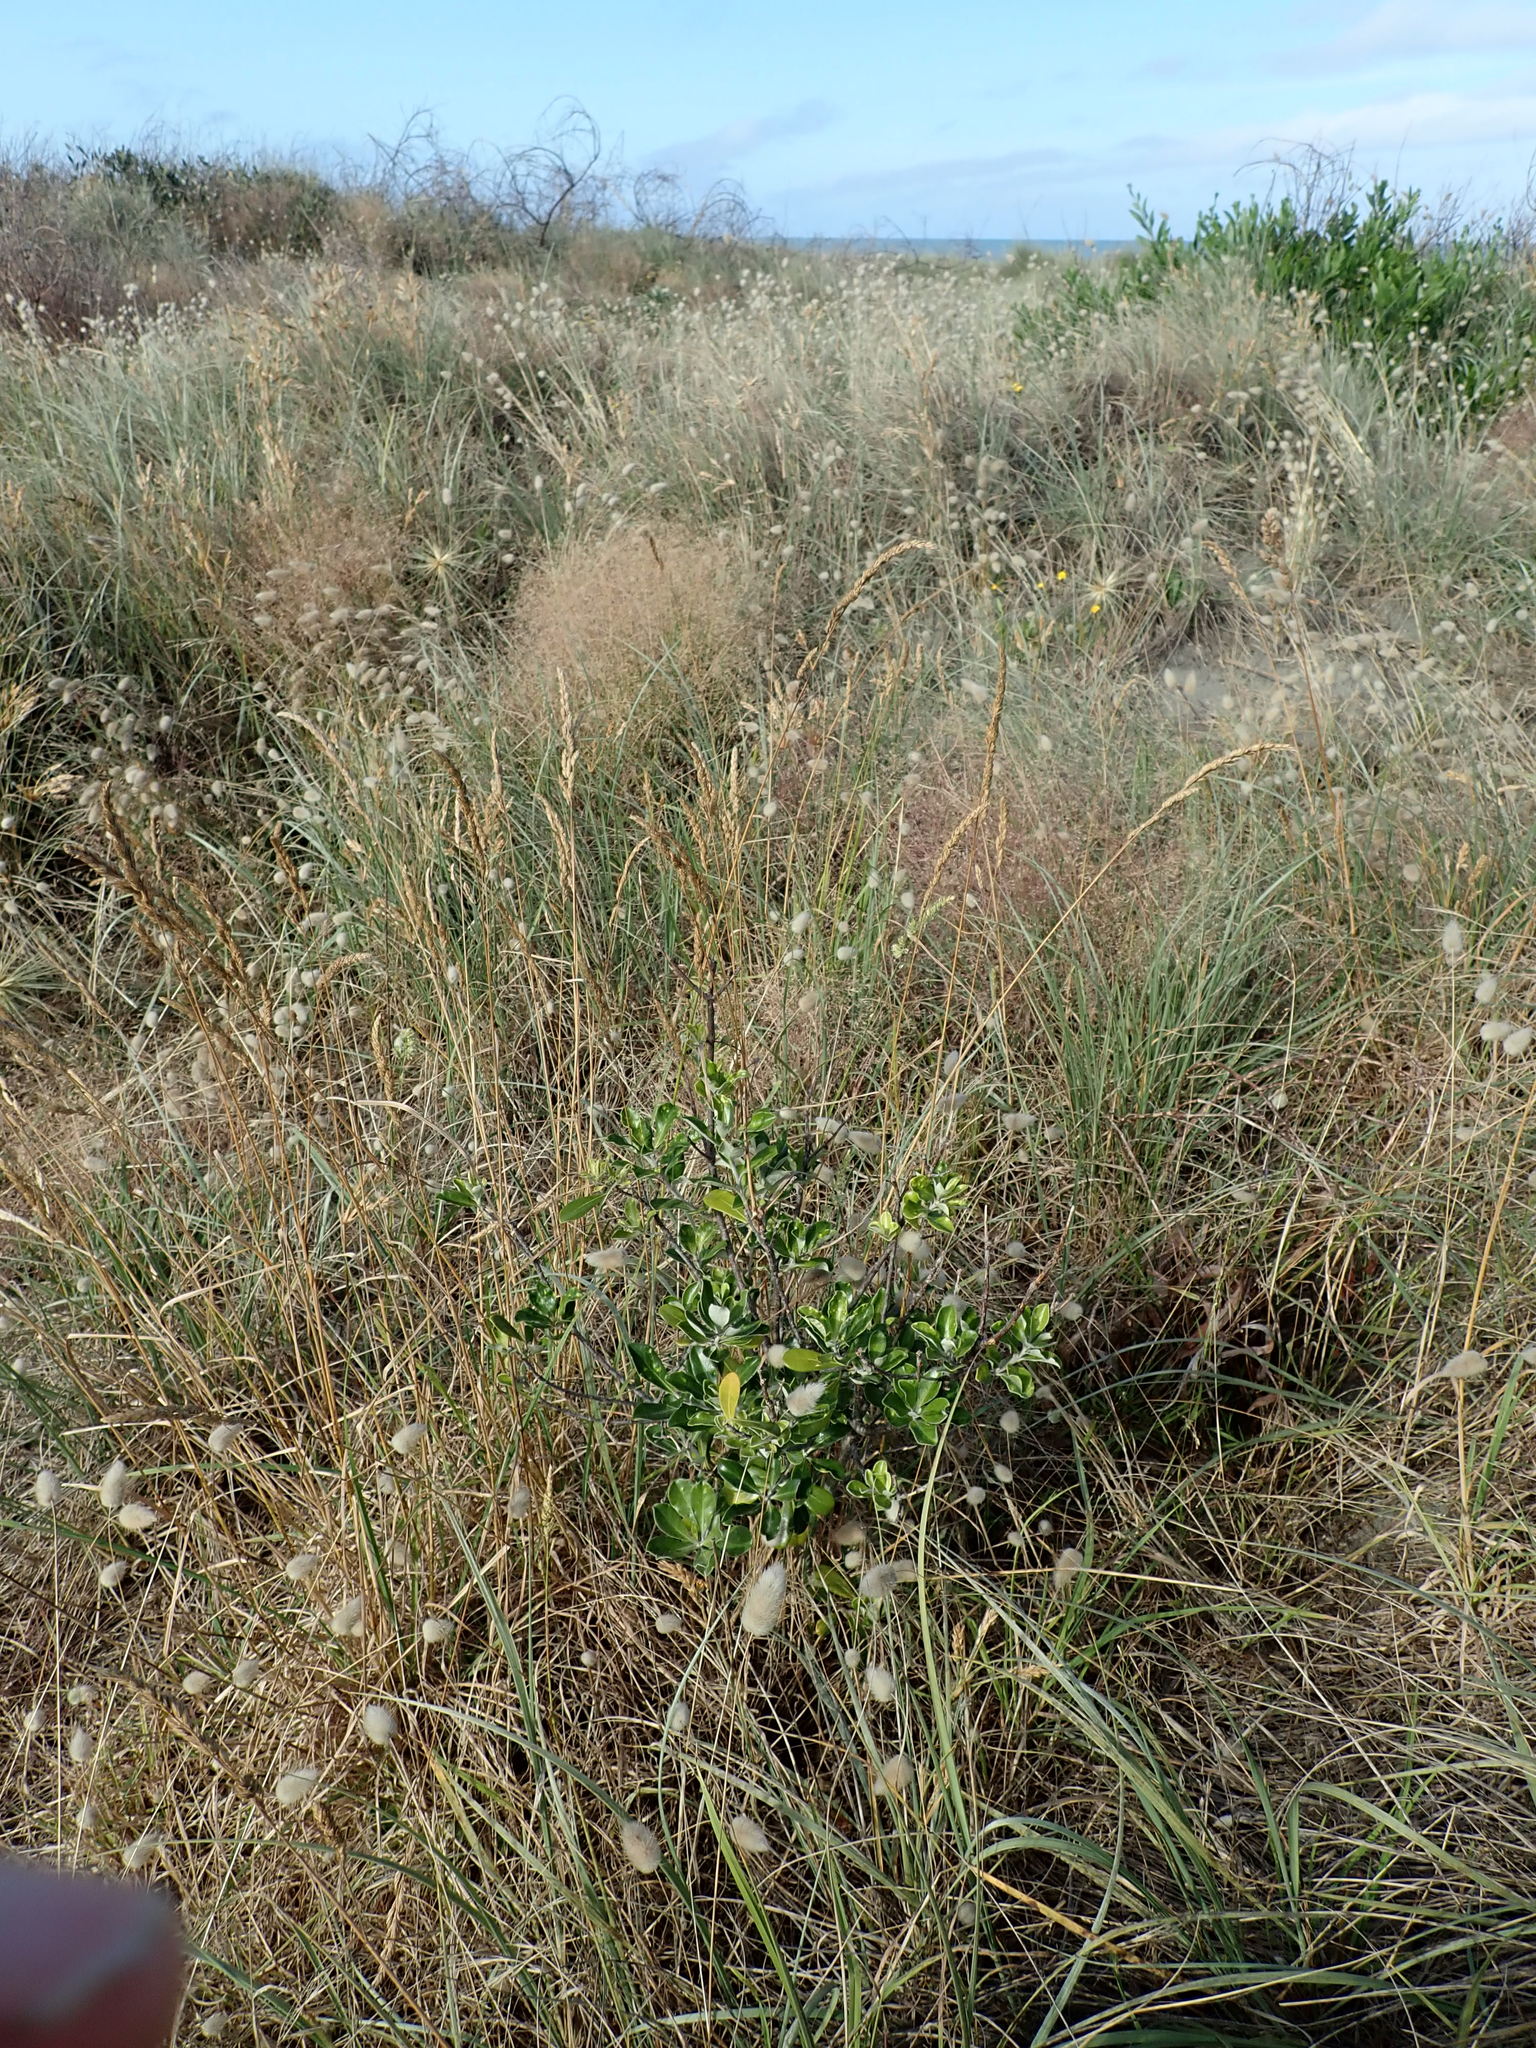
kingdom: Plantae
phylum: Tracheophyta
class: Magnoliopsida
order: Apiales
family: Pittosporaceae
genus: Pittosporum
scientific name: Pittosporum crassifolium
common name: Karo
